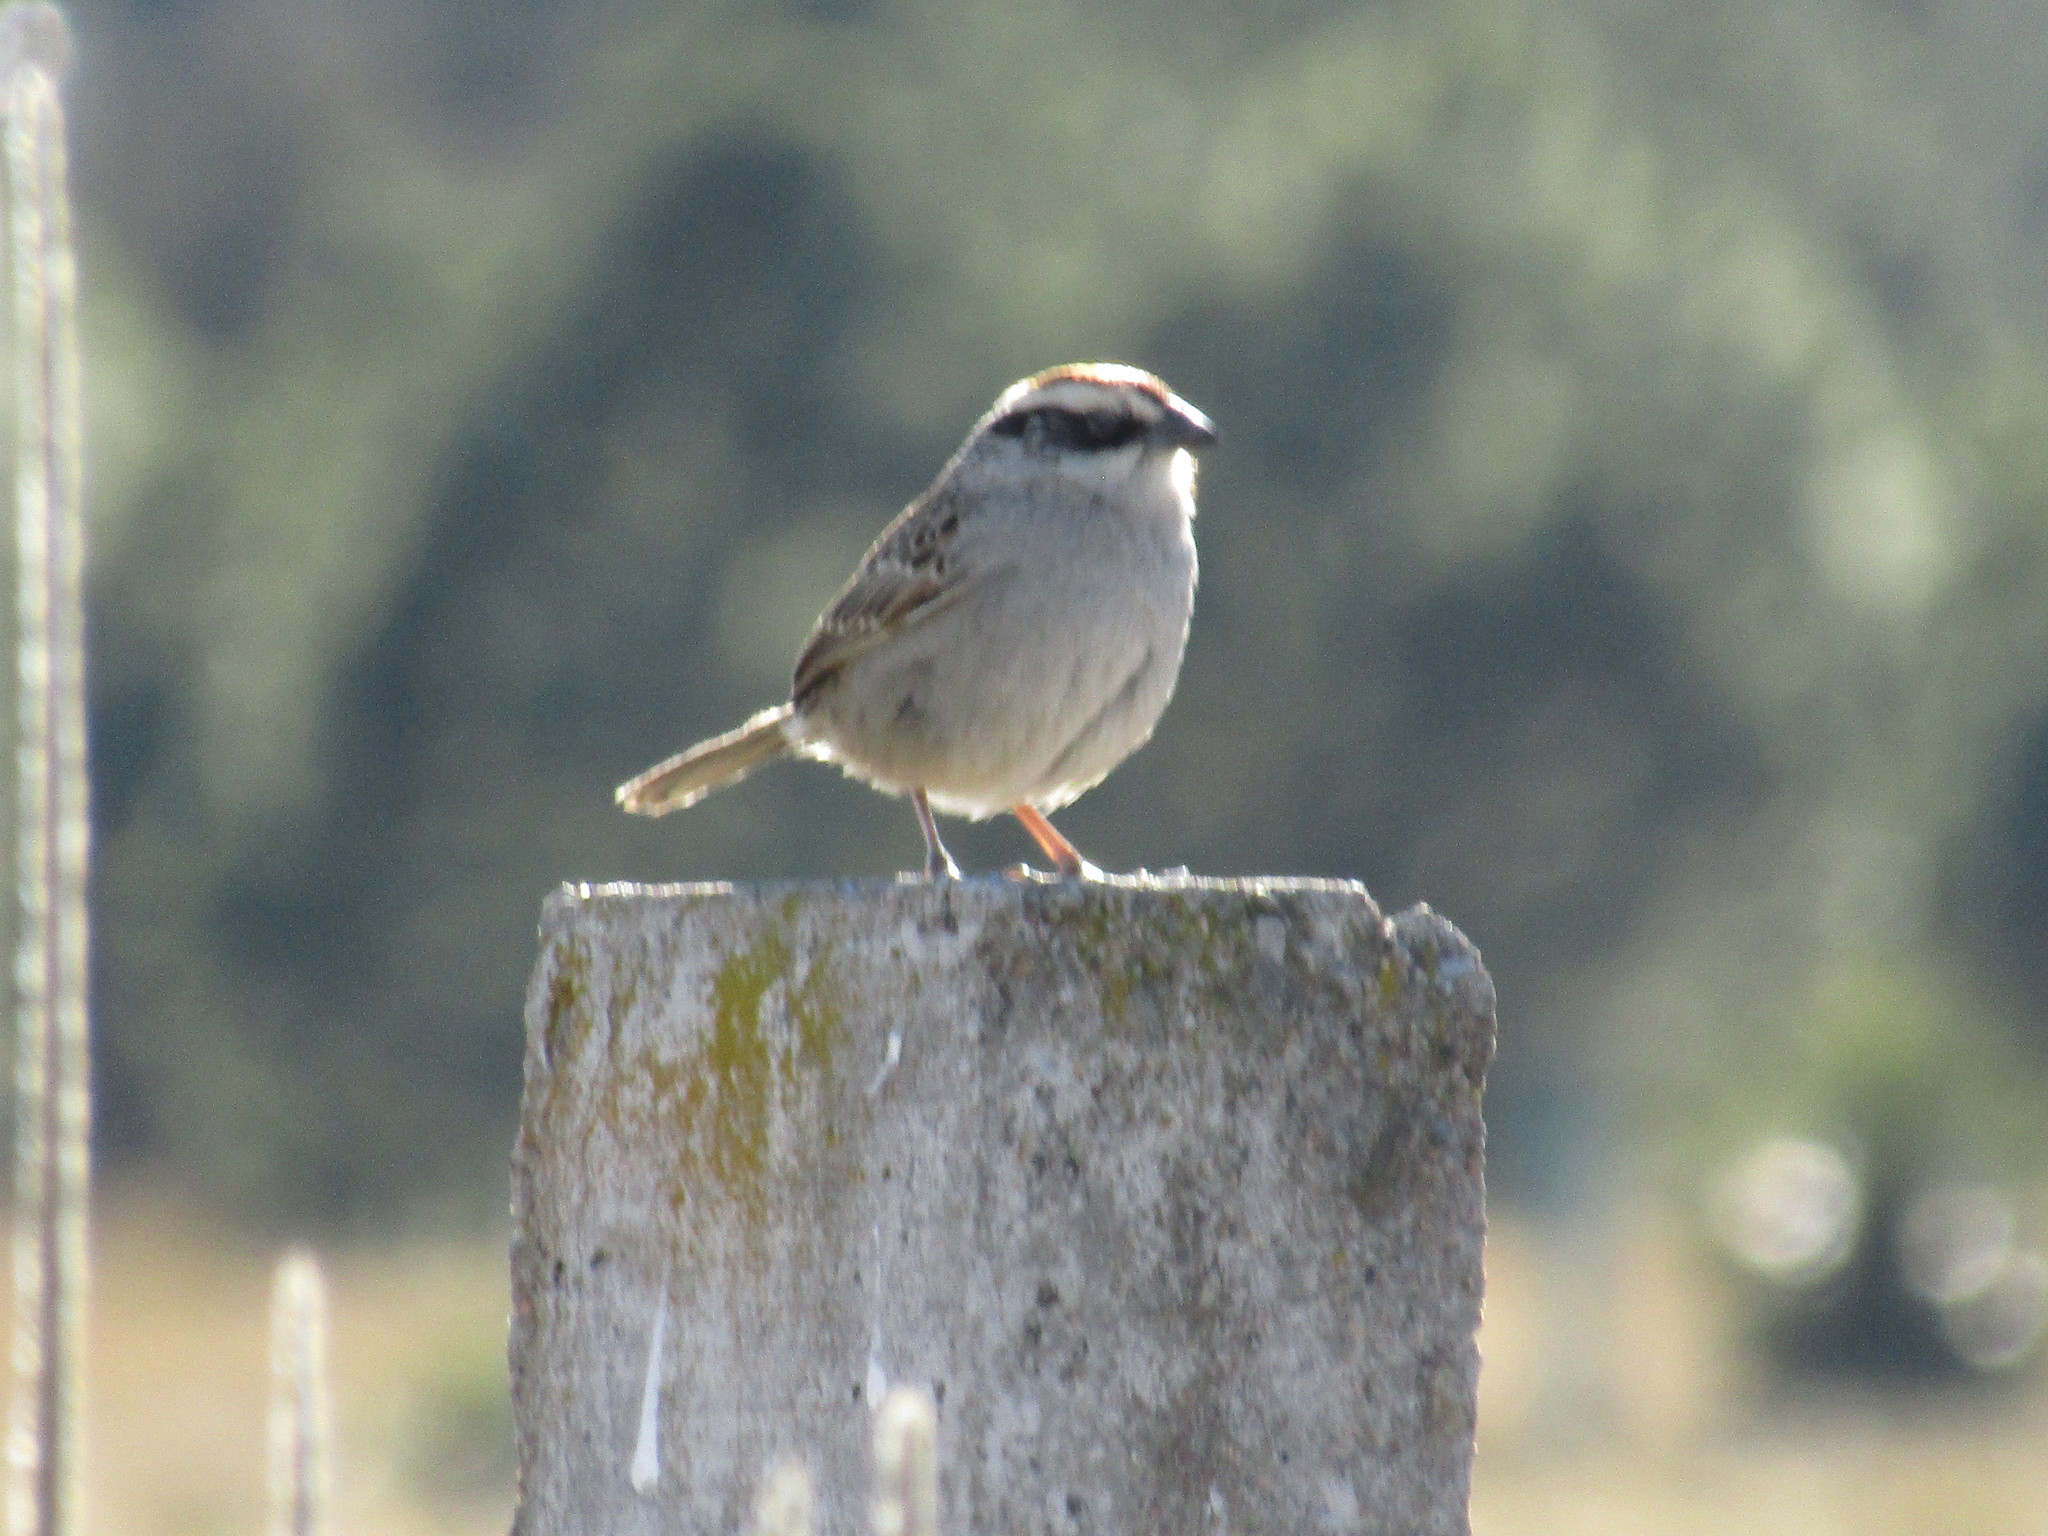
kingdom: Animalia
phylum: Chordata
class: Aves
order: Passeriformes
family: Passerellidae
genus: Oriturus
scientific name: Oriturus superciliosus
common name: Striped sparrow
